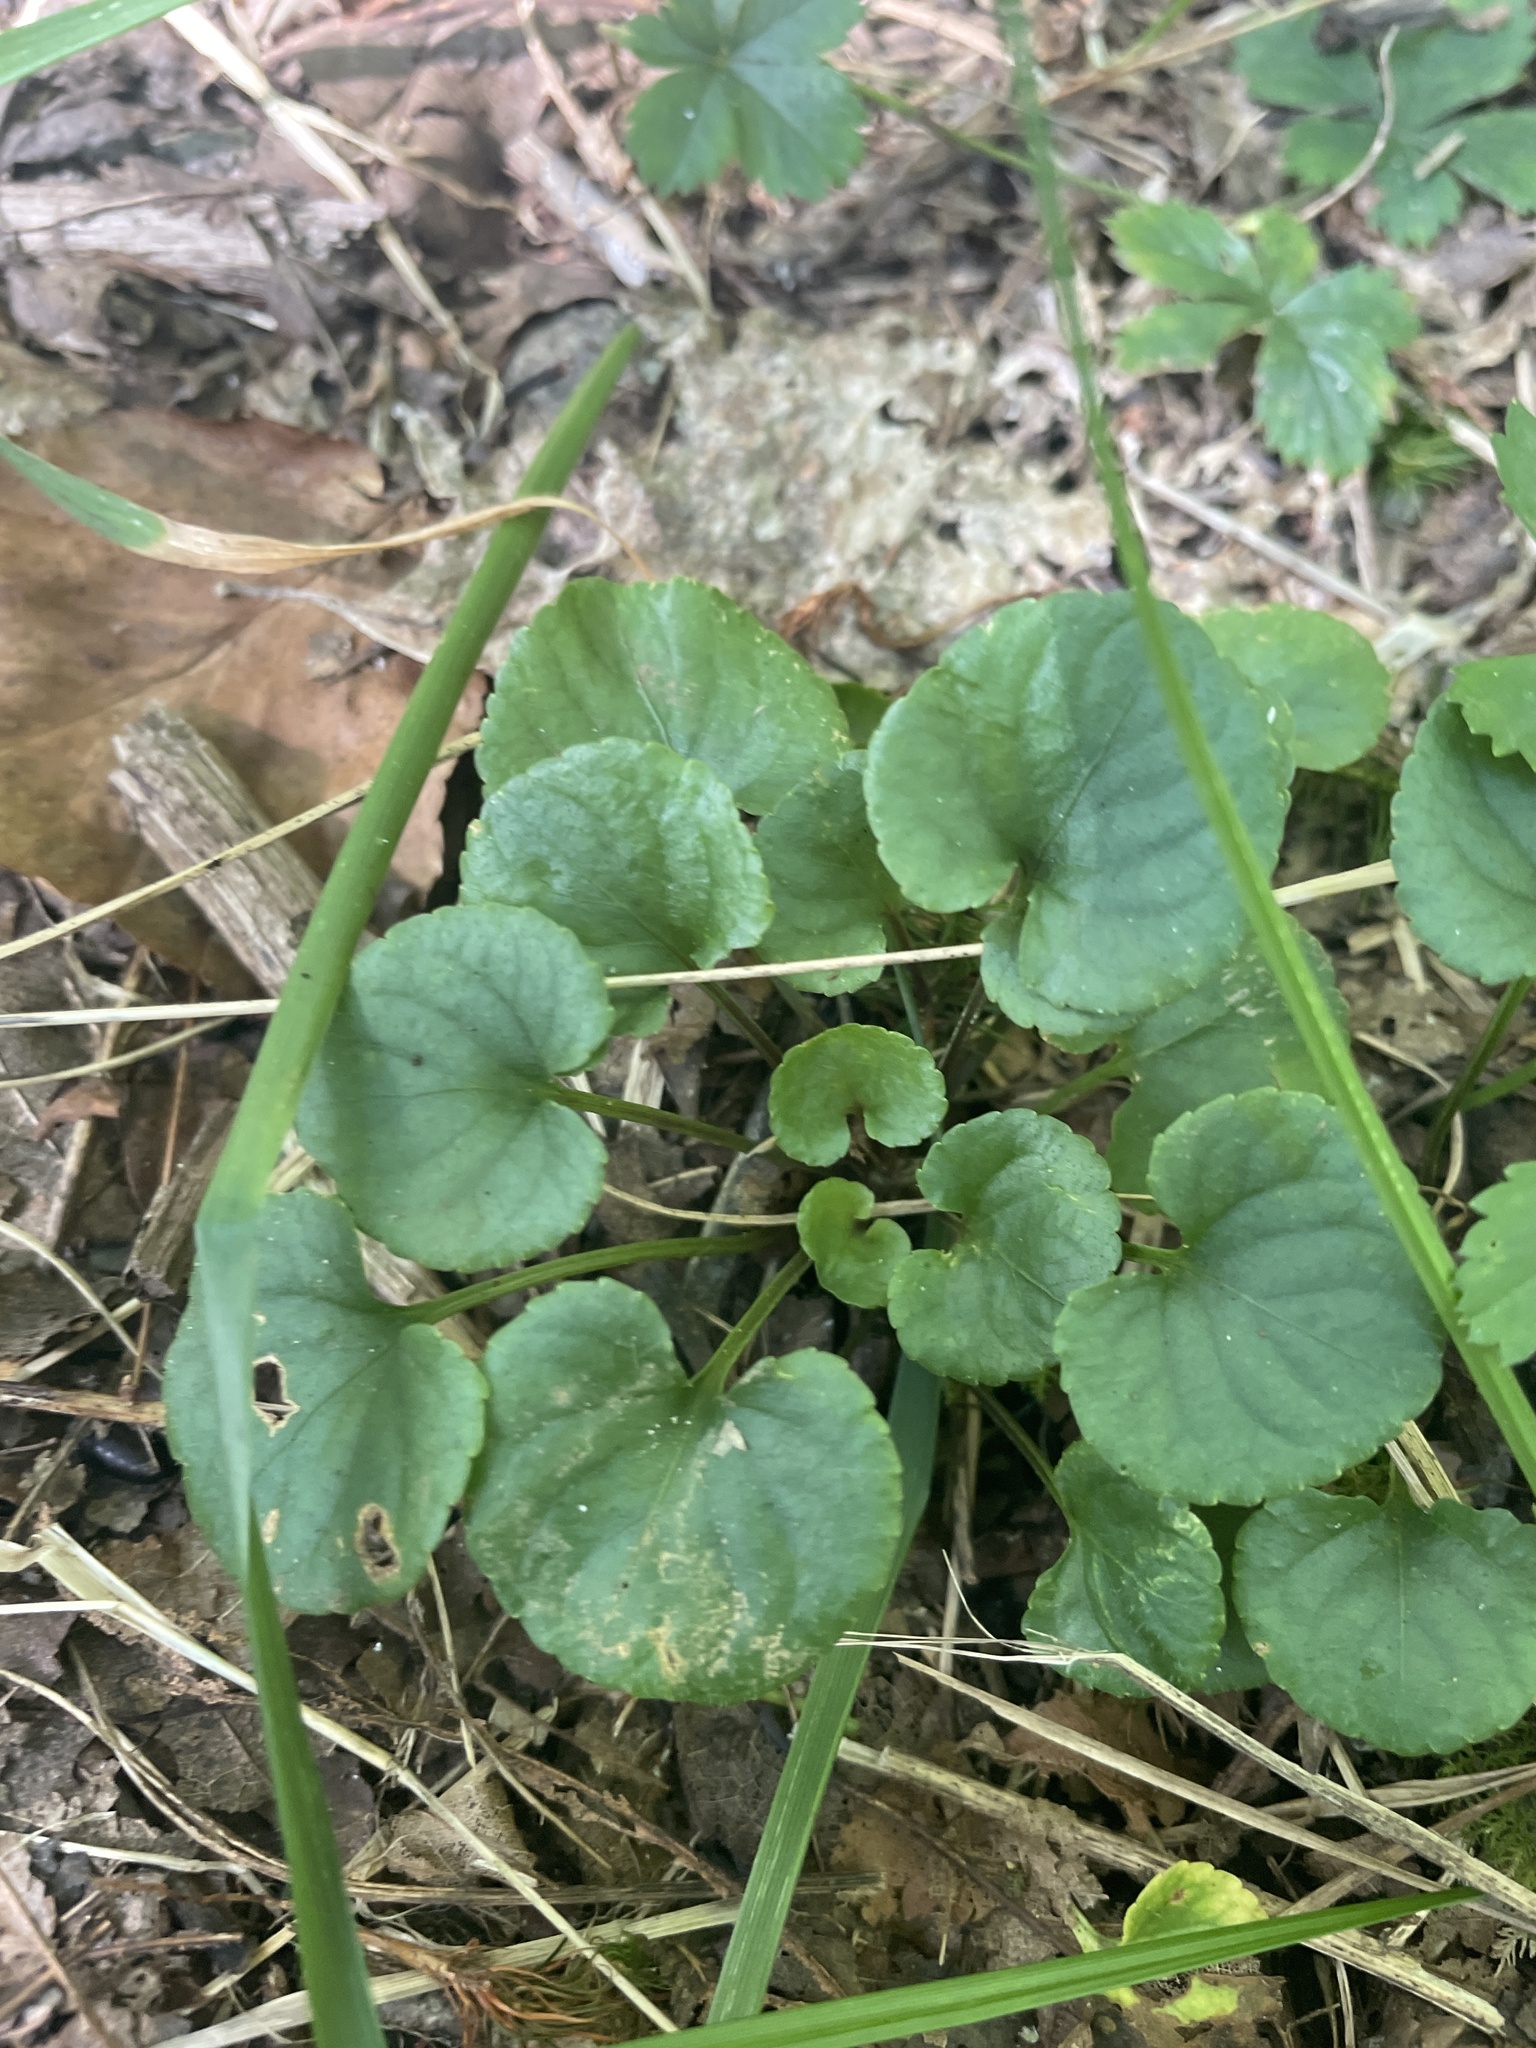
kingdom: Plantae
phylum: Tracheophyta
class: Magnoliopsida
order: Malpighiales
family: Violaceae
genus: Viola
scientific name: Viola appalachiensis
